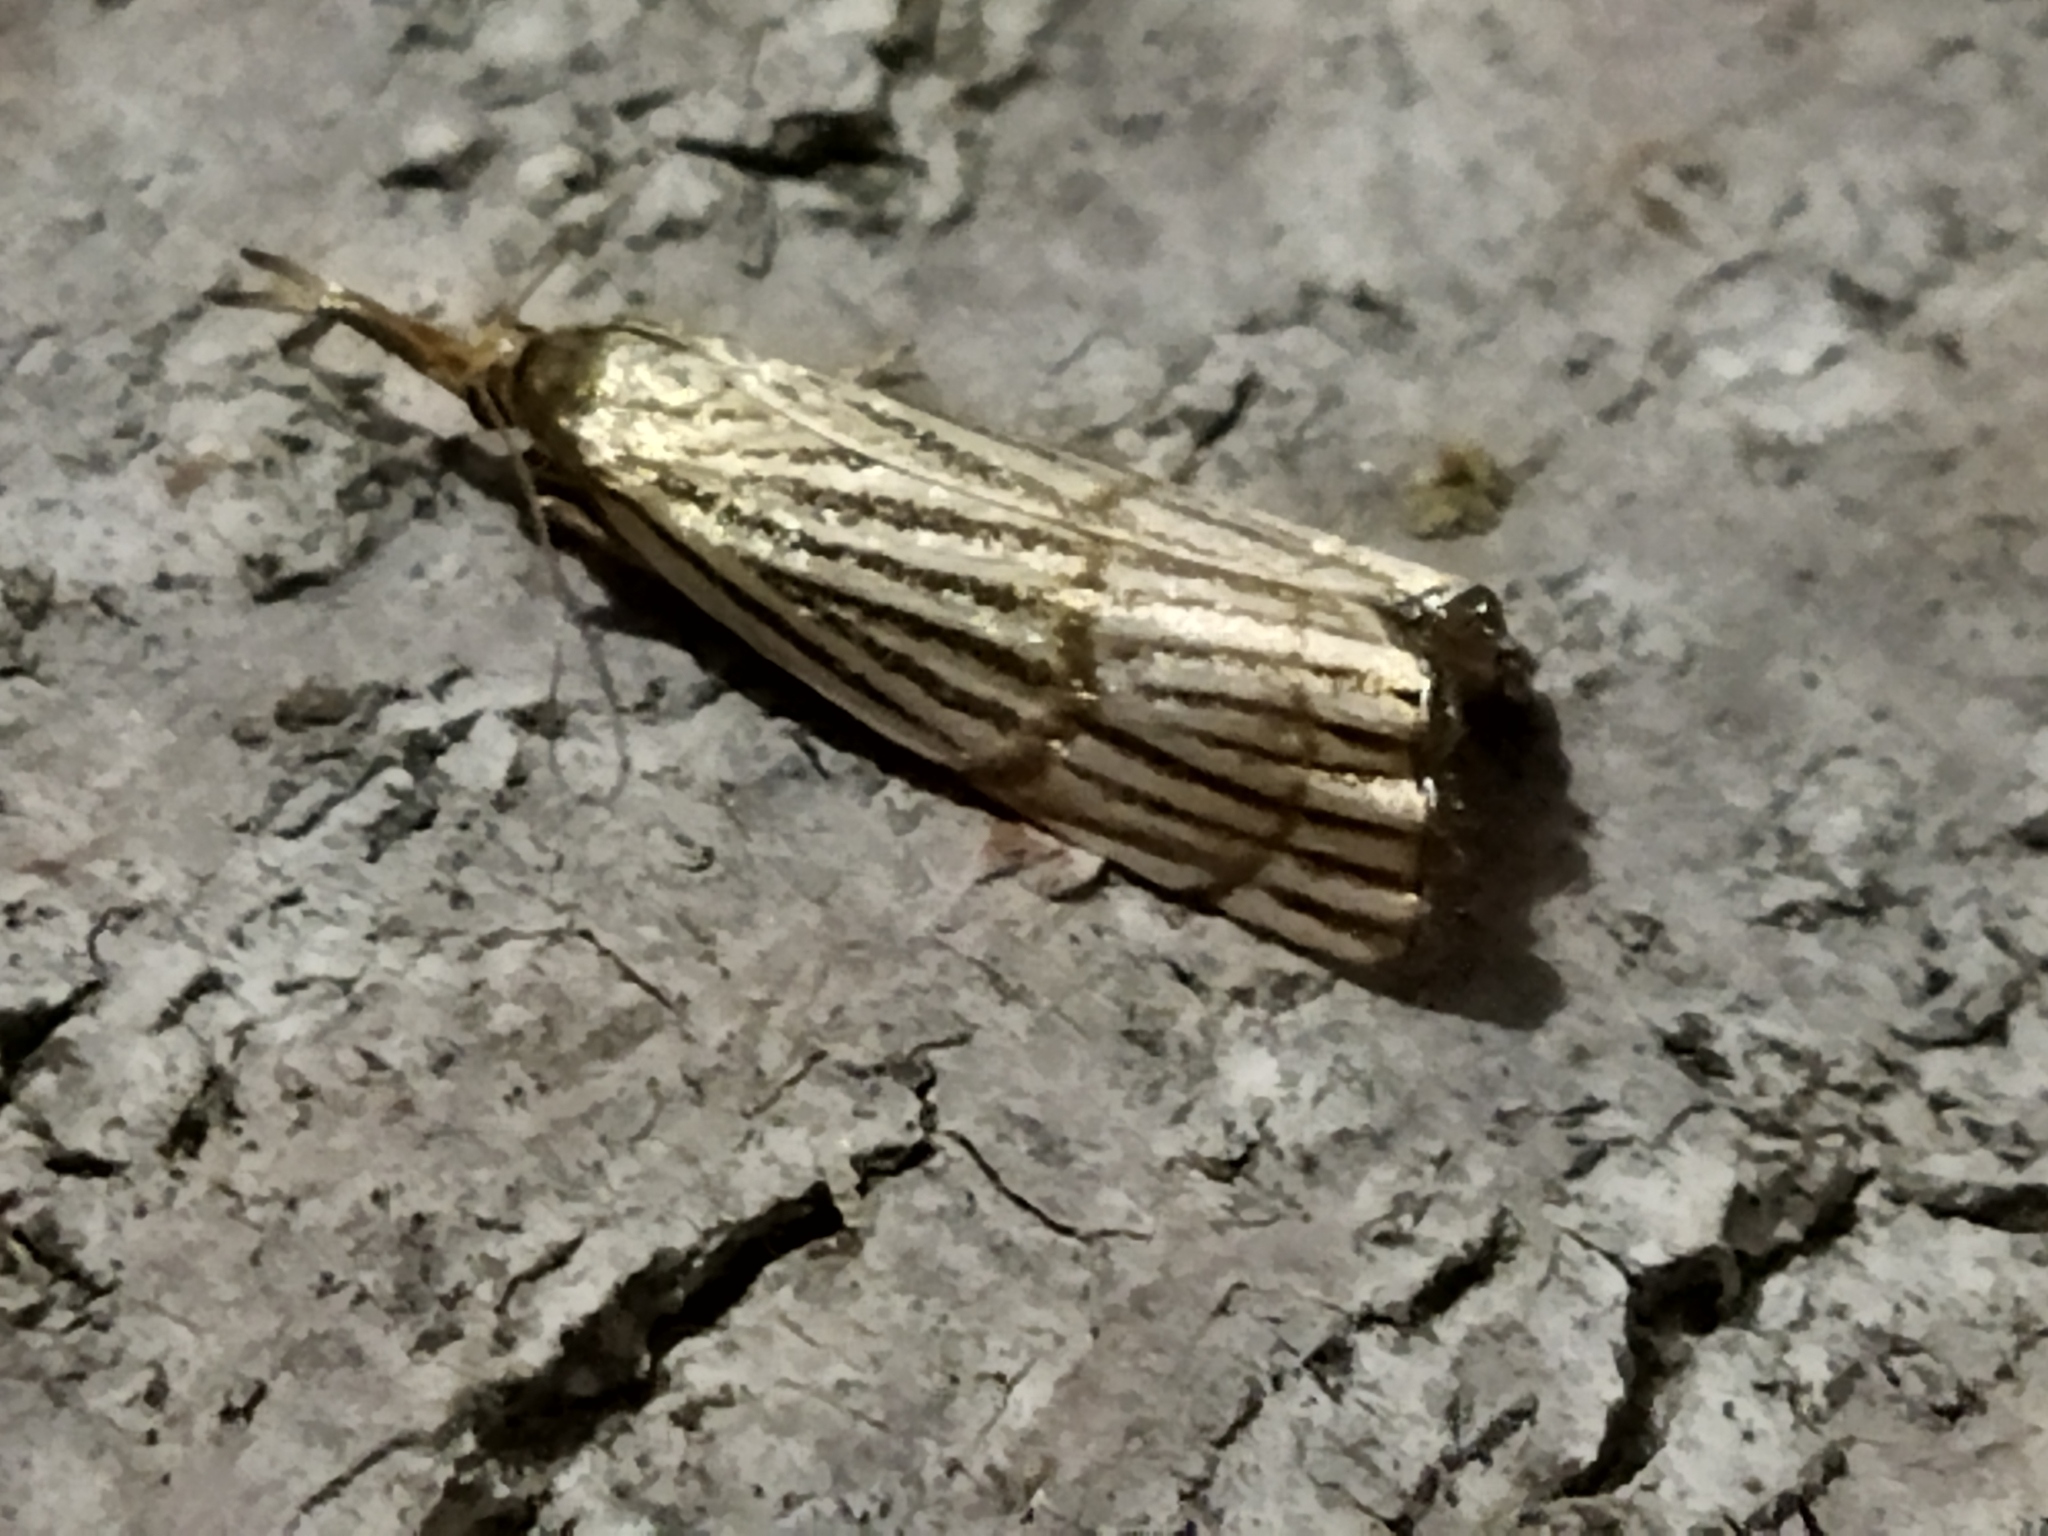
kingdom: Animalia
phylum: Arthropoda
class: Insecta
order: Lepidoptera
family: Crambidae
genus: Chrysocrambus
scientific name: Chrysocrambus linetella
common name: Orange-bar grass-veneer
